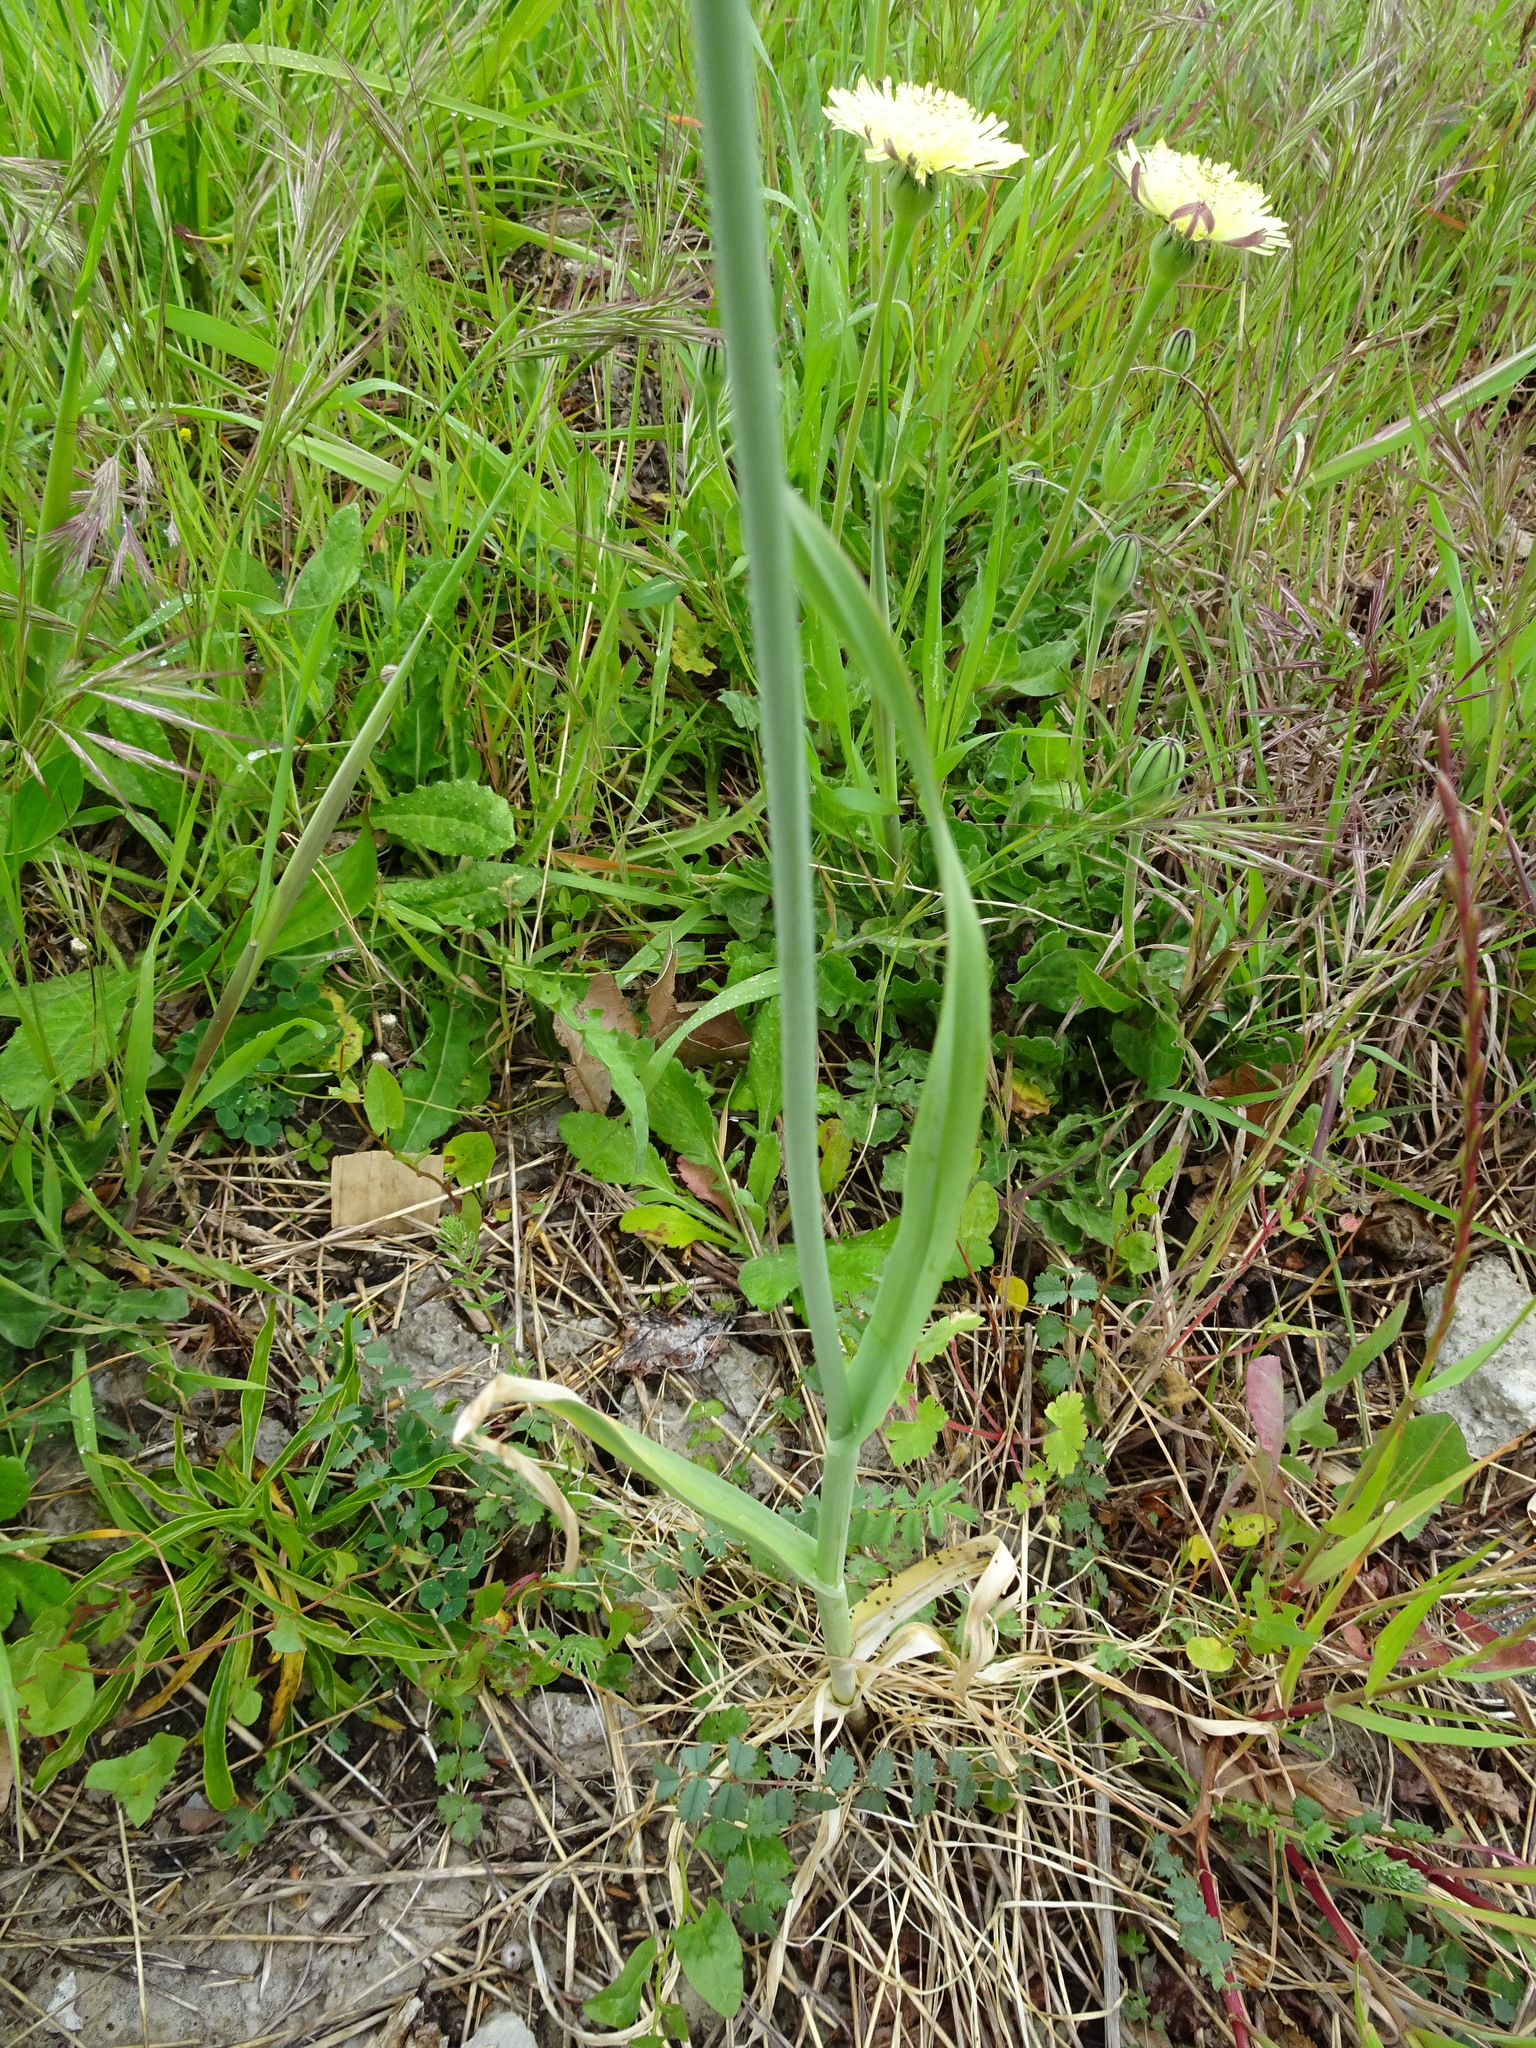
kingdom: Plantae
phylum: Tracheophyta
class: Liliopsida
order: Asparagales
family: Amaryllidaceae
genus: Allium
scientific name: Allium ampeloprasum
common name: Wild leek
